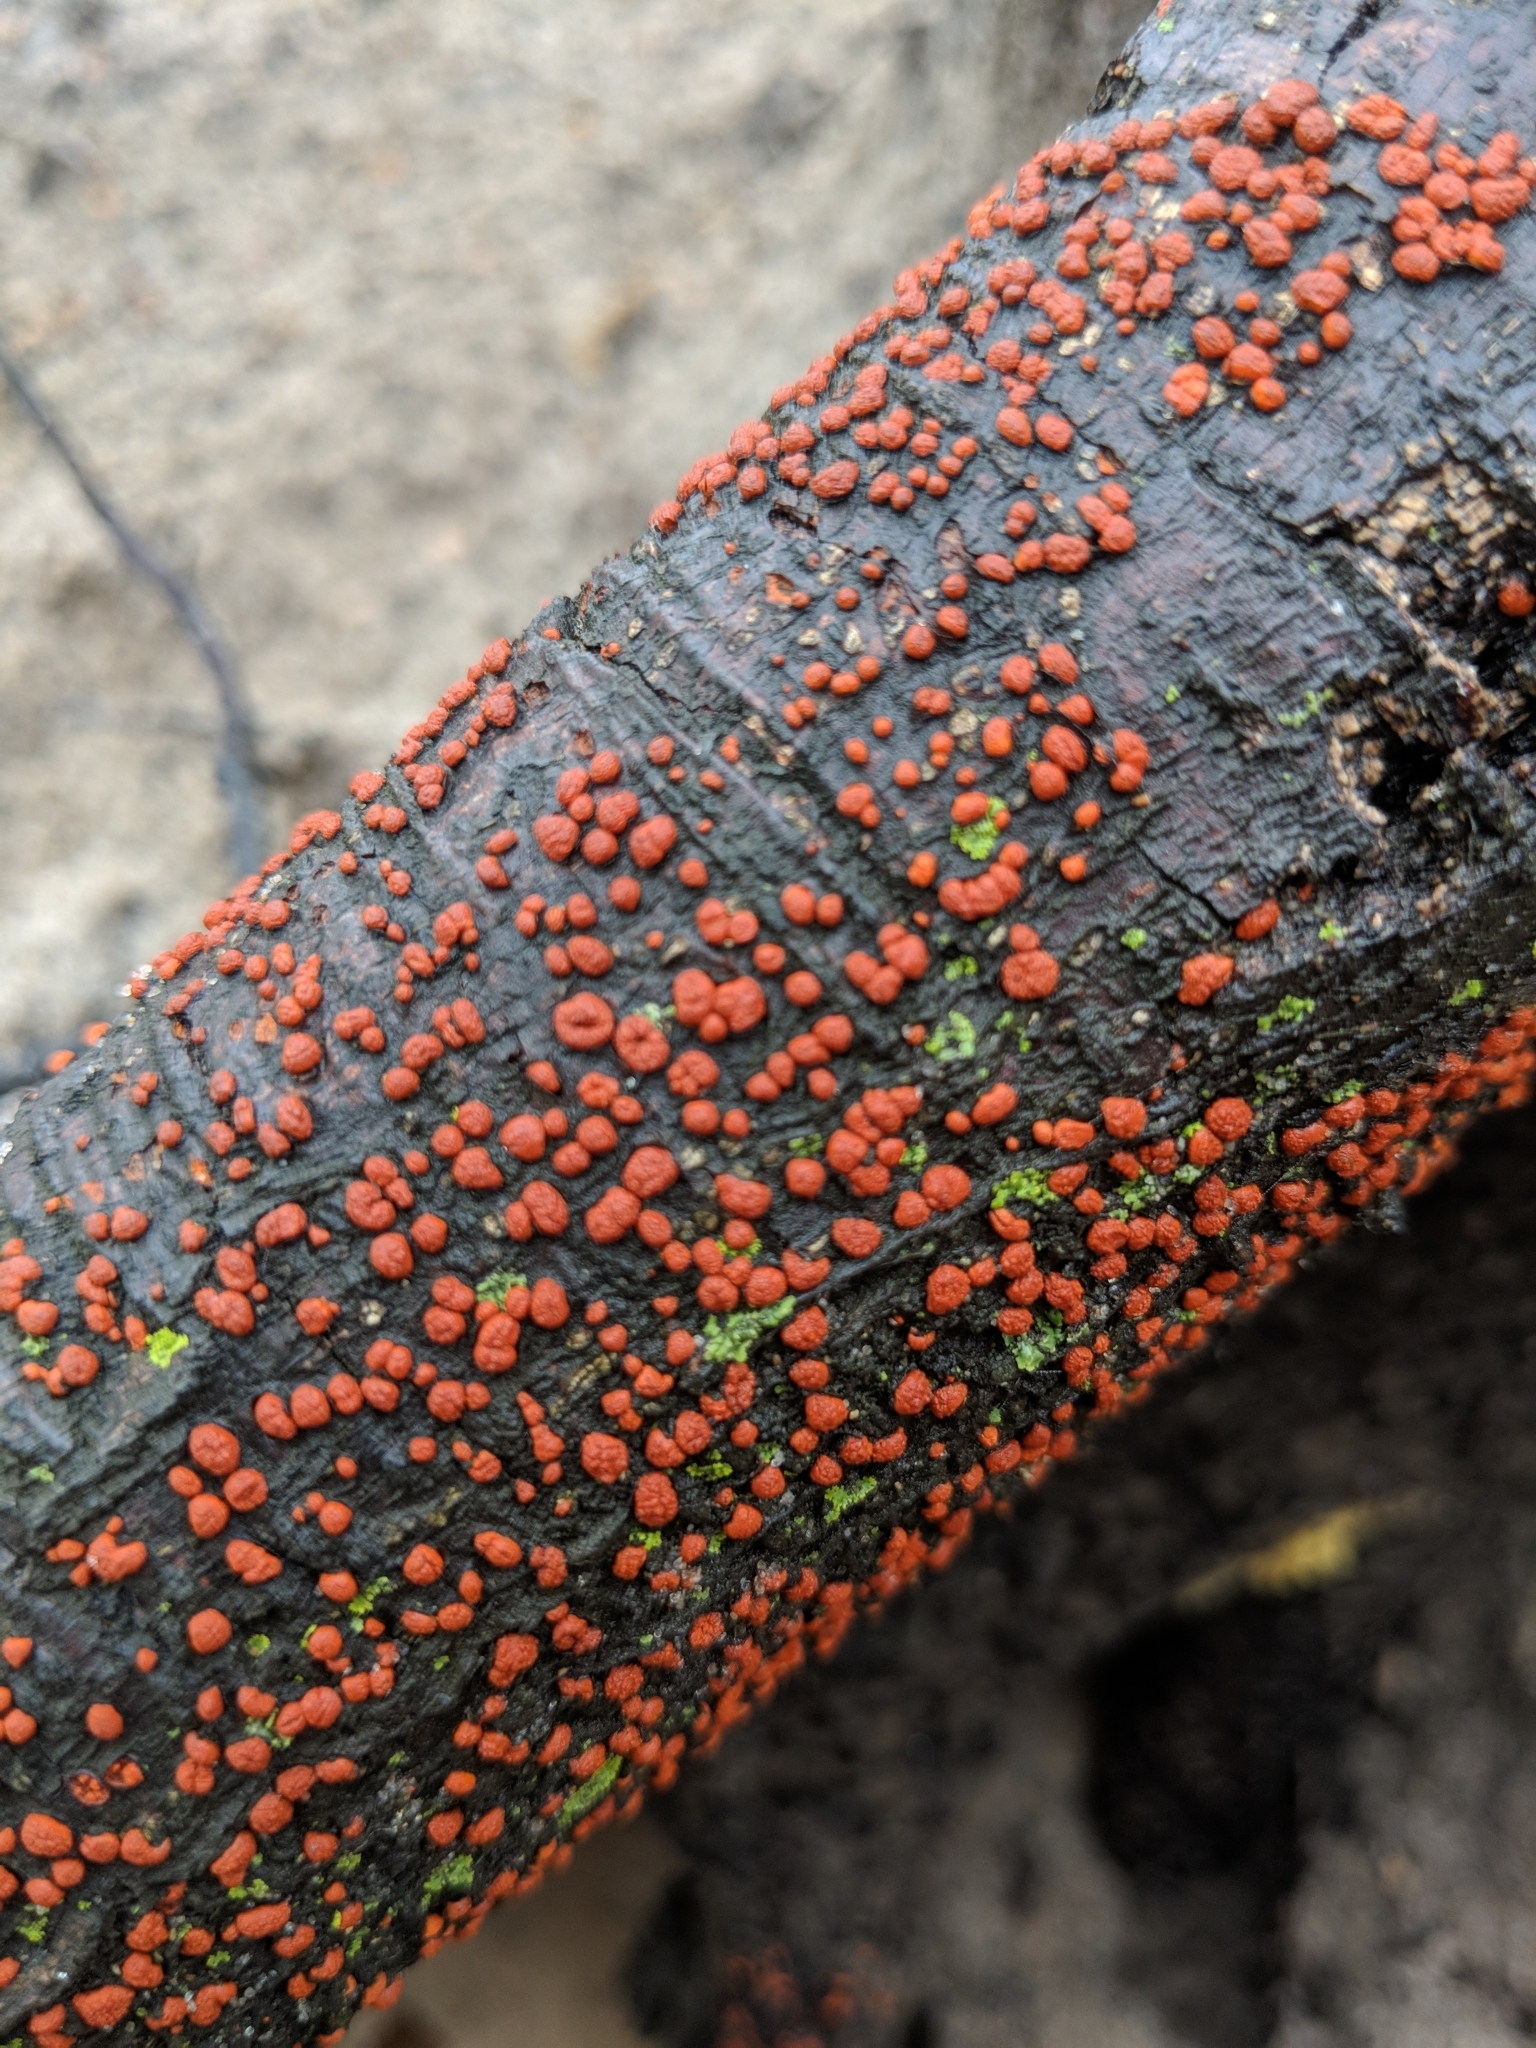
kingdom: Fungi
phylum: Ascomycota
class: Sordariomycetes
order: Diaporthales
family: Cryphonectriaceae
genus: Amphilogia
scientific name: Amphilogia gyrosa
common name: Orange hobnail canker
